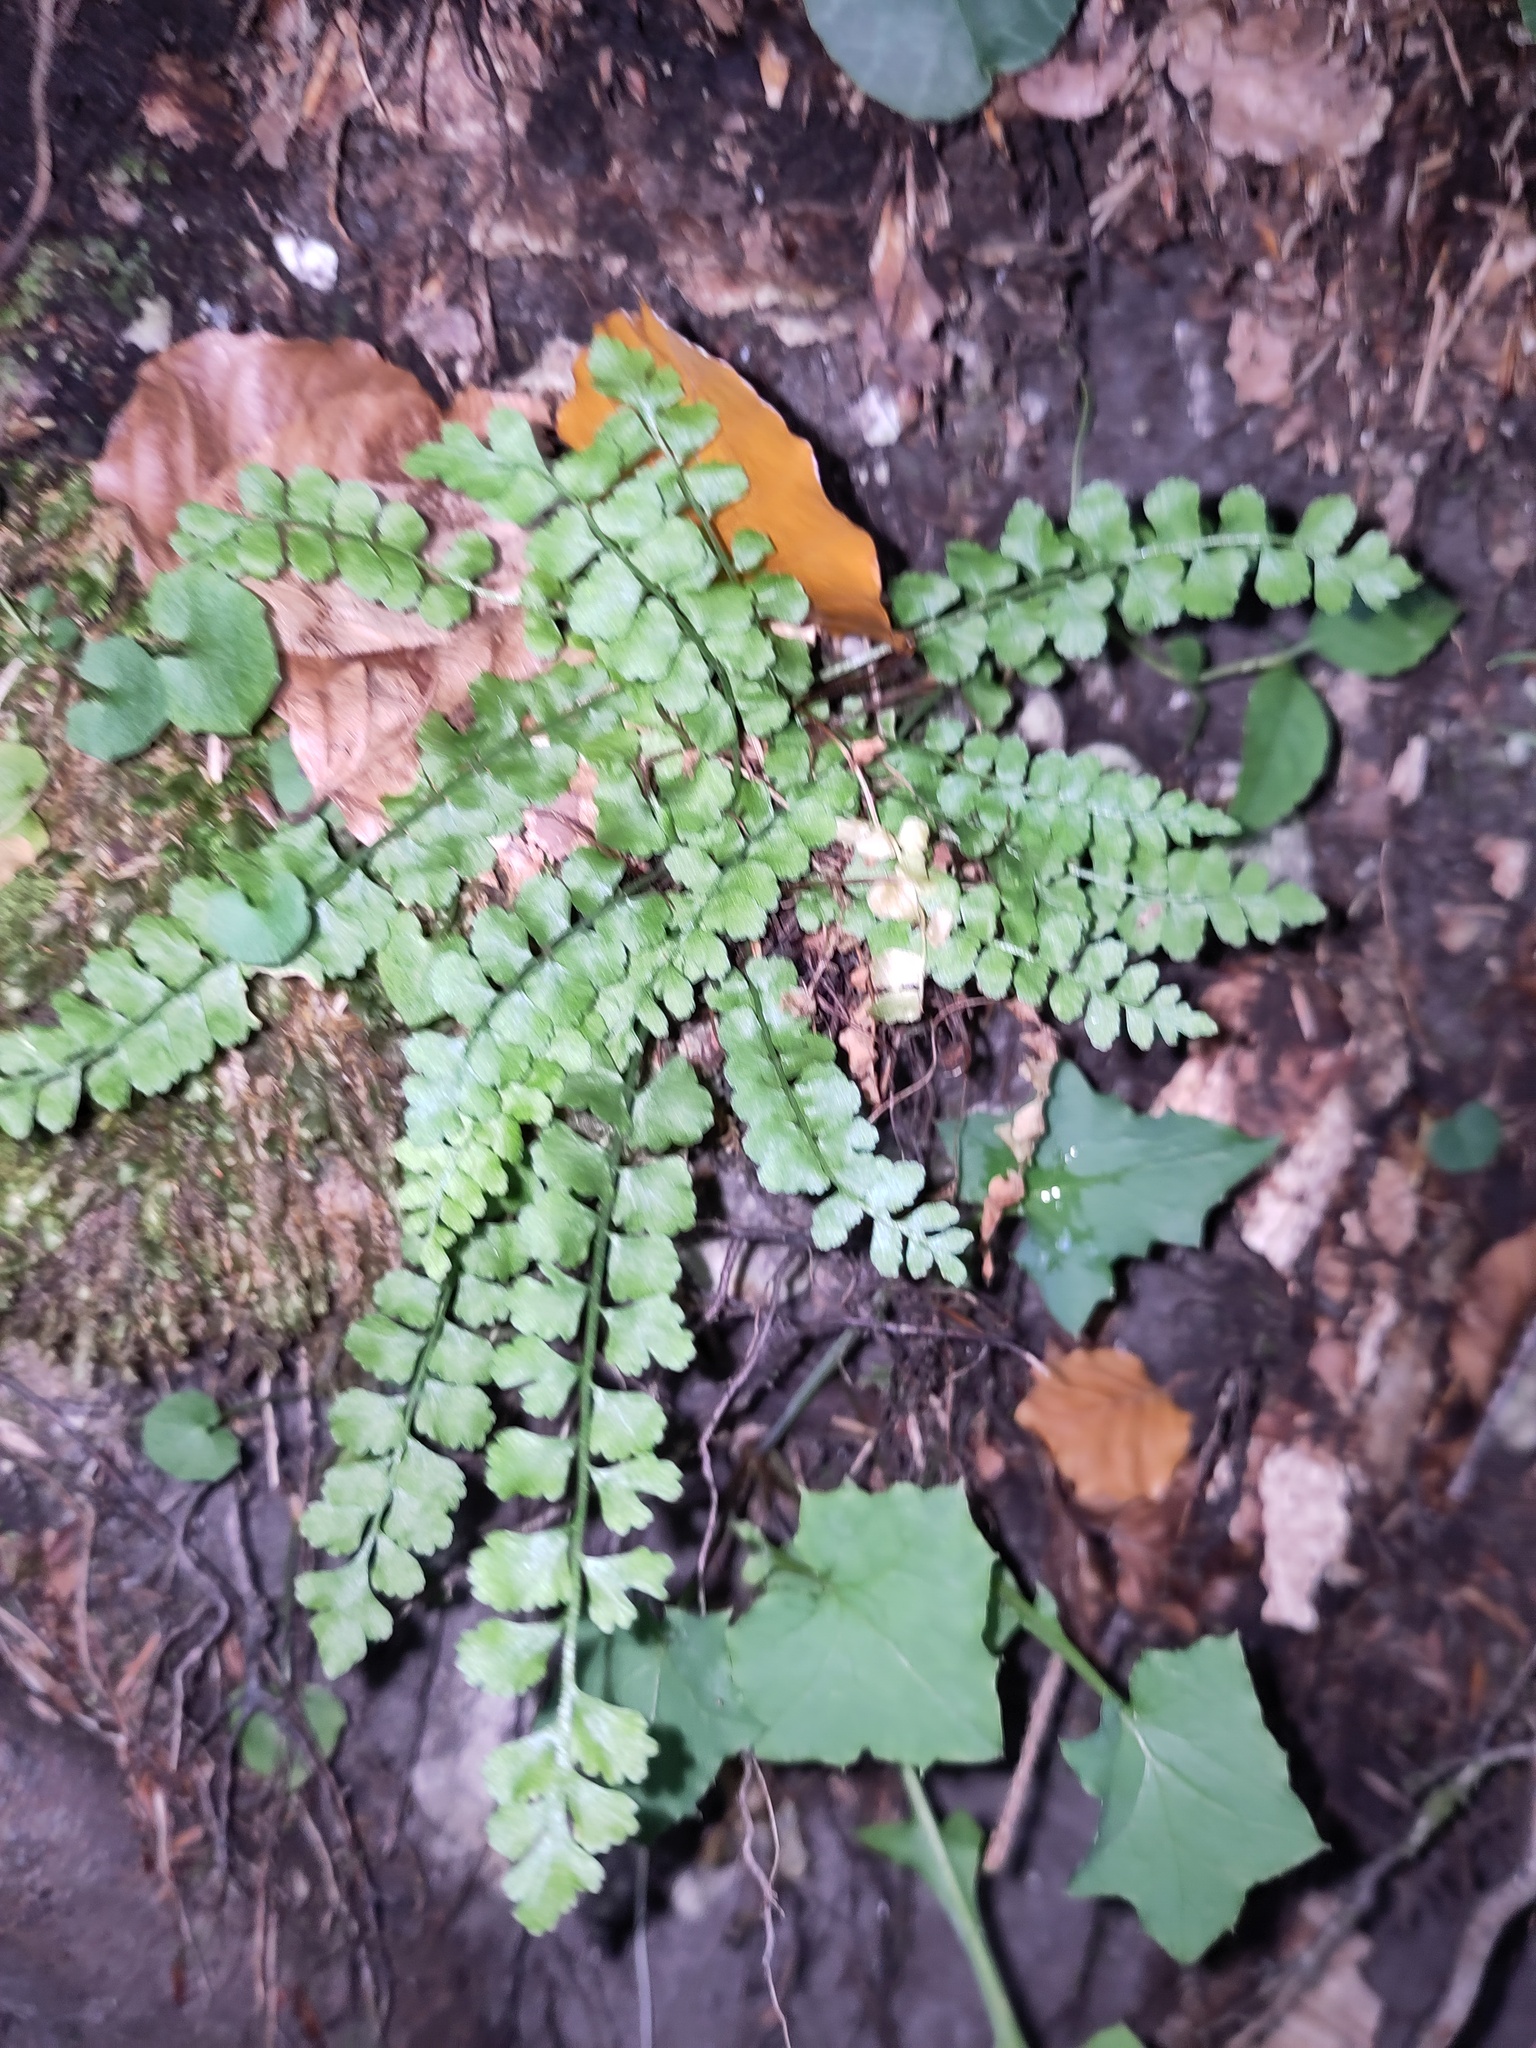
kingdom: Plantae
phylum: Tracheophyta
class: Polypodiopsida
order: Polypodiales
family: Aspleniaceae
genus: Asplenium
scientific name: Asplenium viride
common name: Green spleenwort
